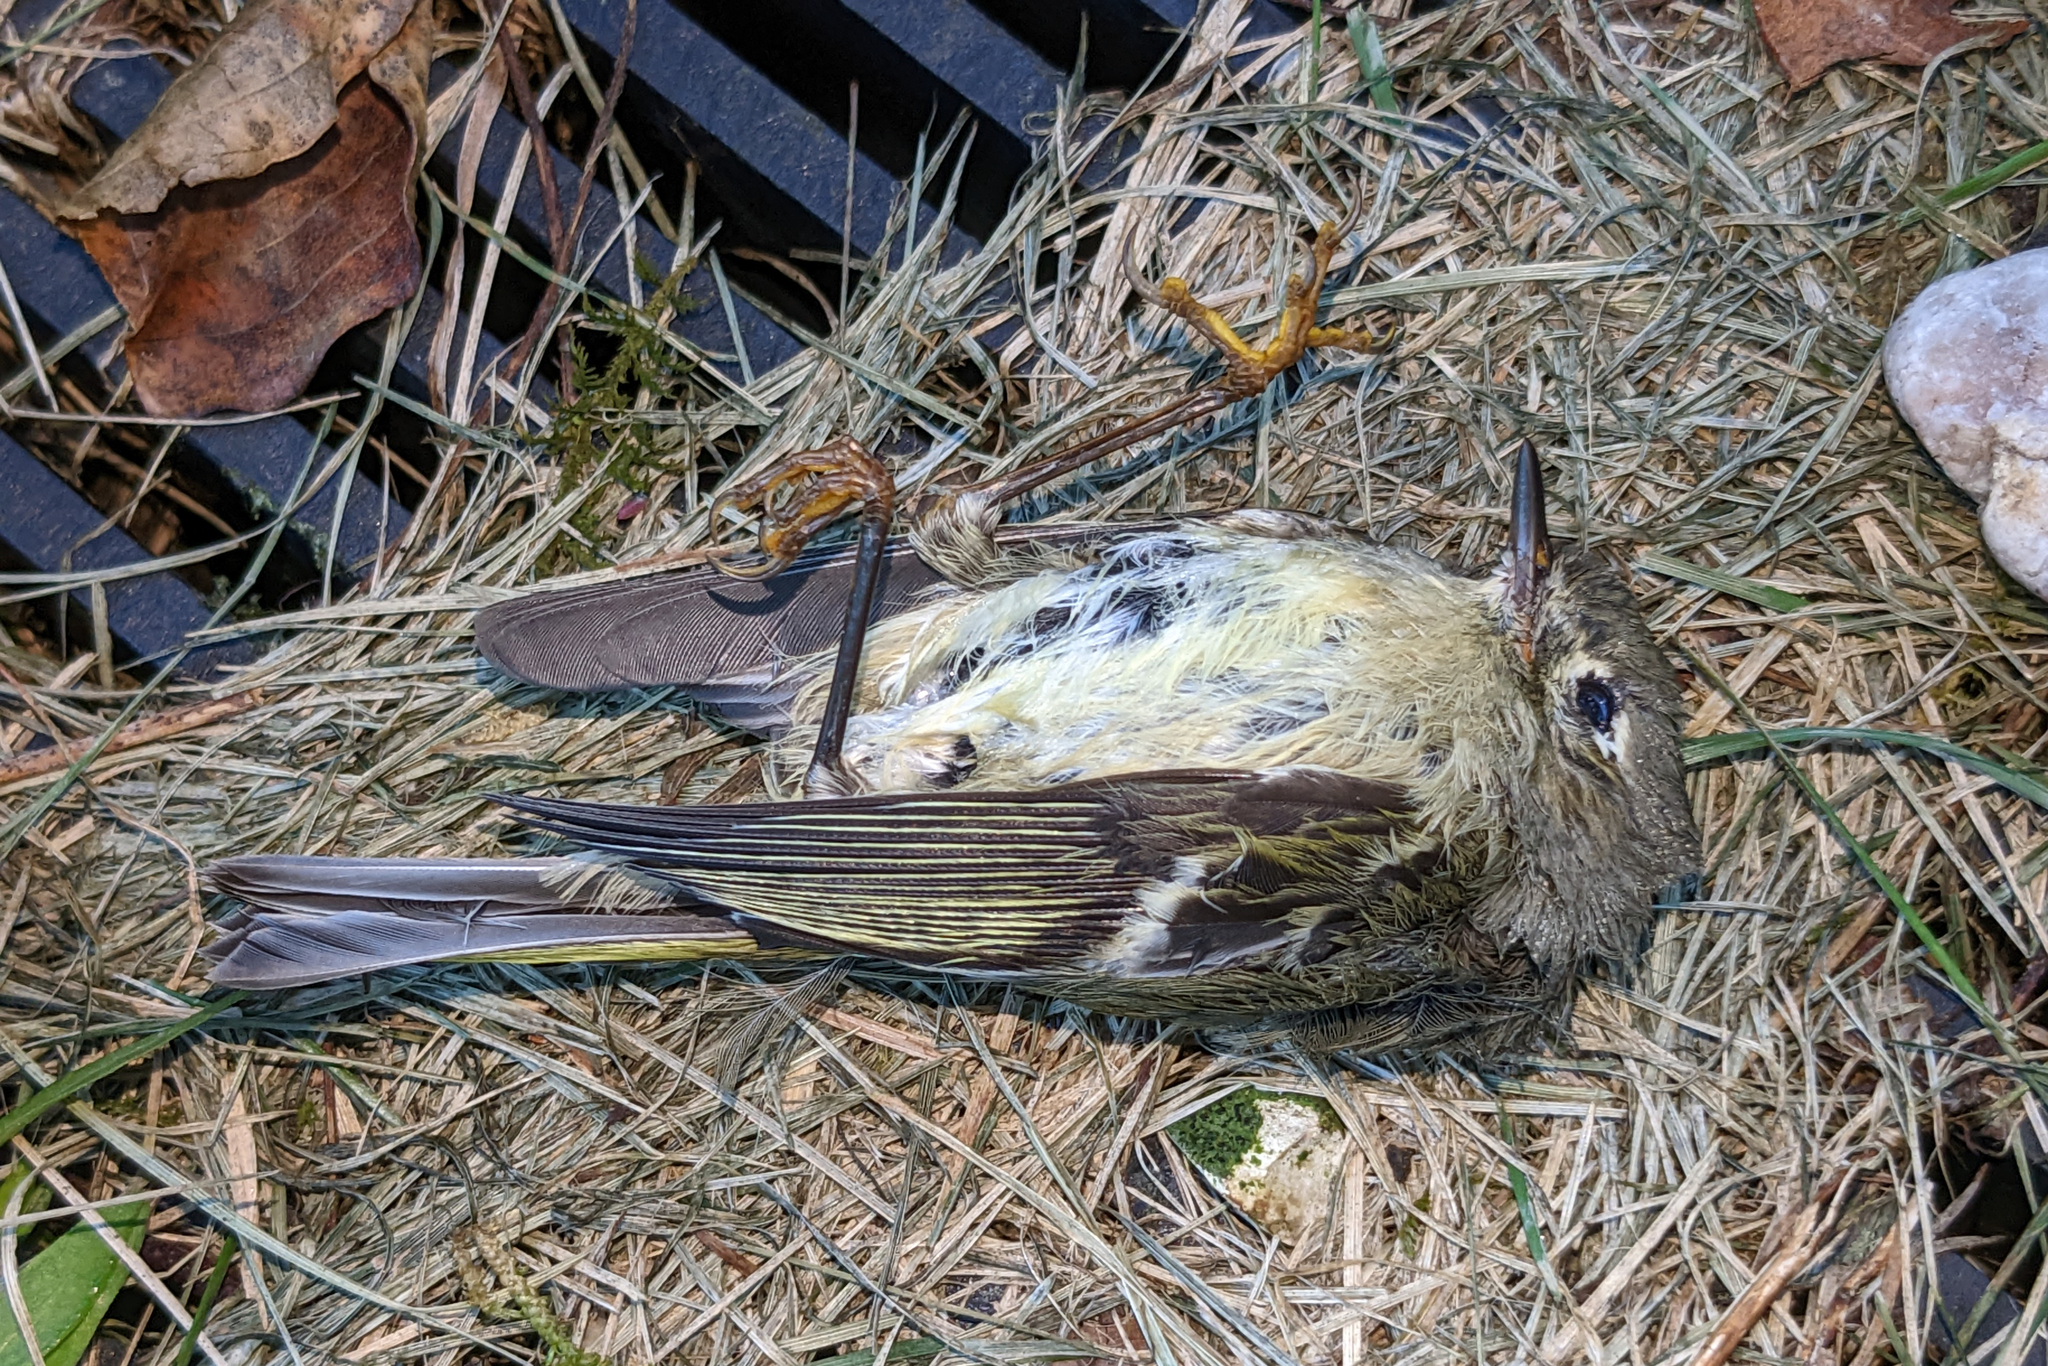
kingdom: Animalia
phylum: Chordata
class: Aves
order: Passeriformes
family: Regulidae
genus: Regulus
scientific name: Regulus calendula
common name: Ruby-crowned kinglet
